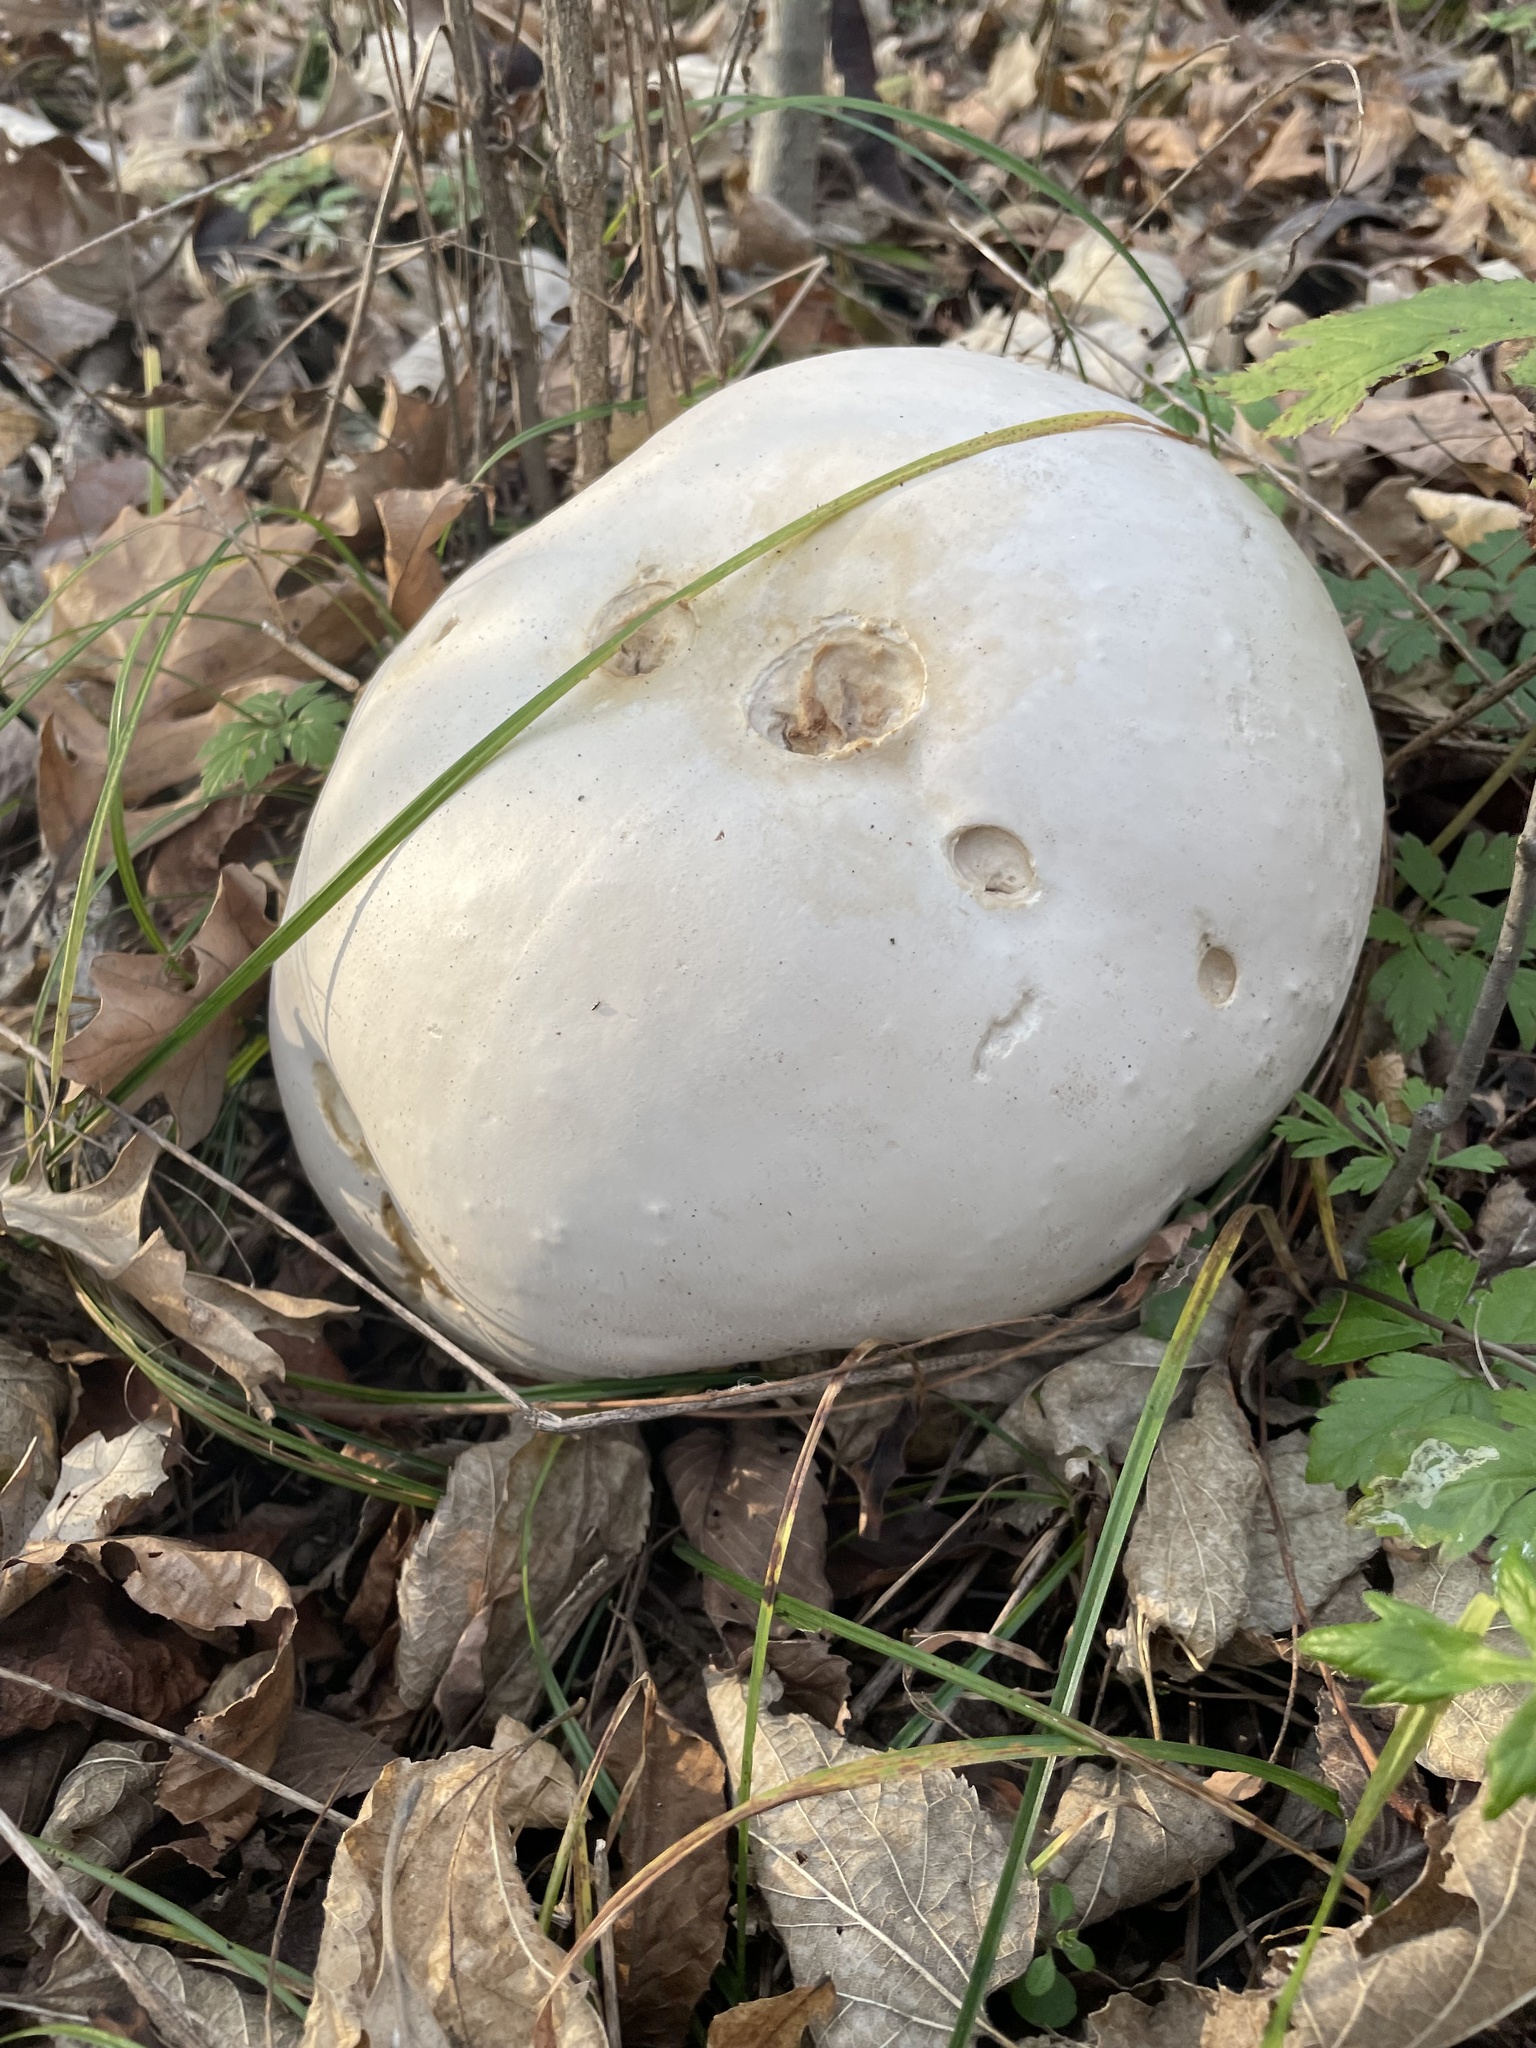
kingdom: Fungi
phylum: Basidiomycota
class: Agaricomycetes
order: Agaricales
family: Lycoperdaceae
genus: Calvatia
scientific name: Calvatia gigantea
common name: Giant puffball
